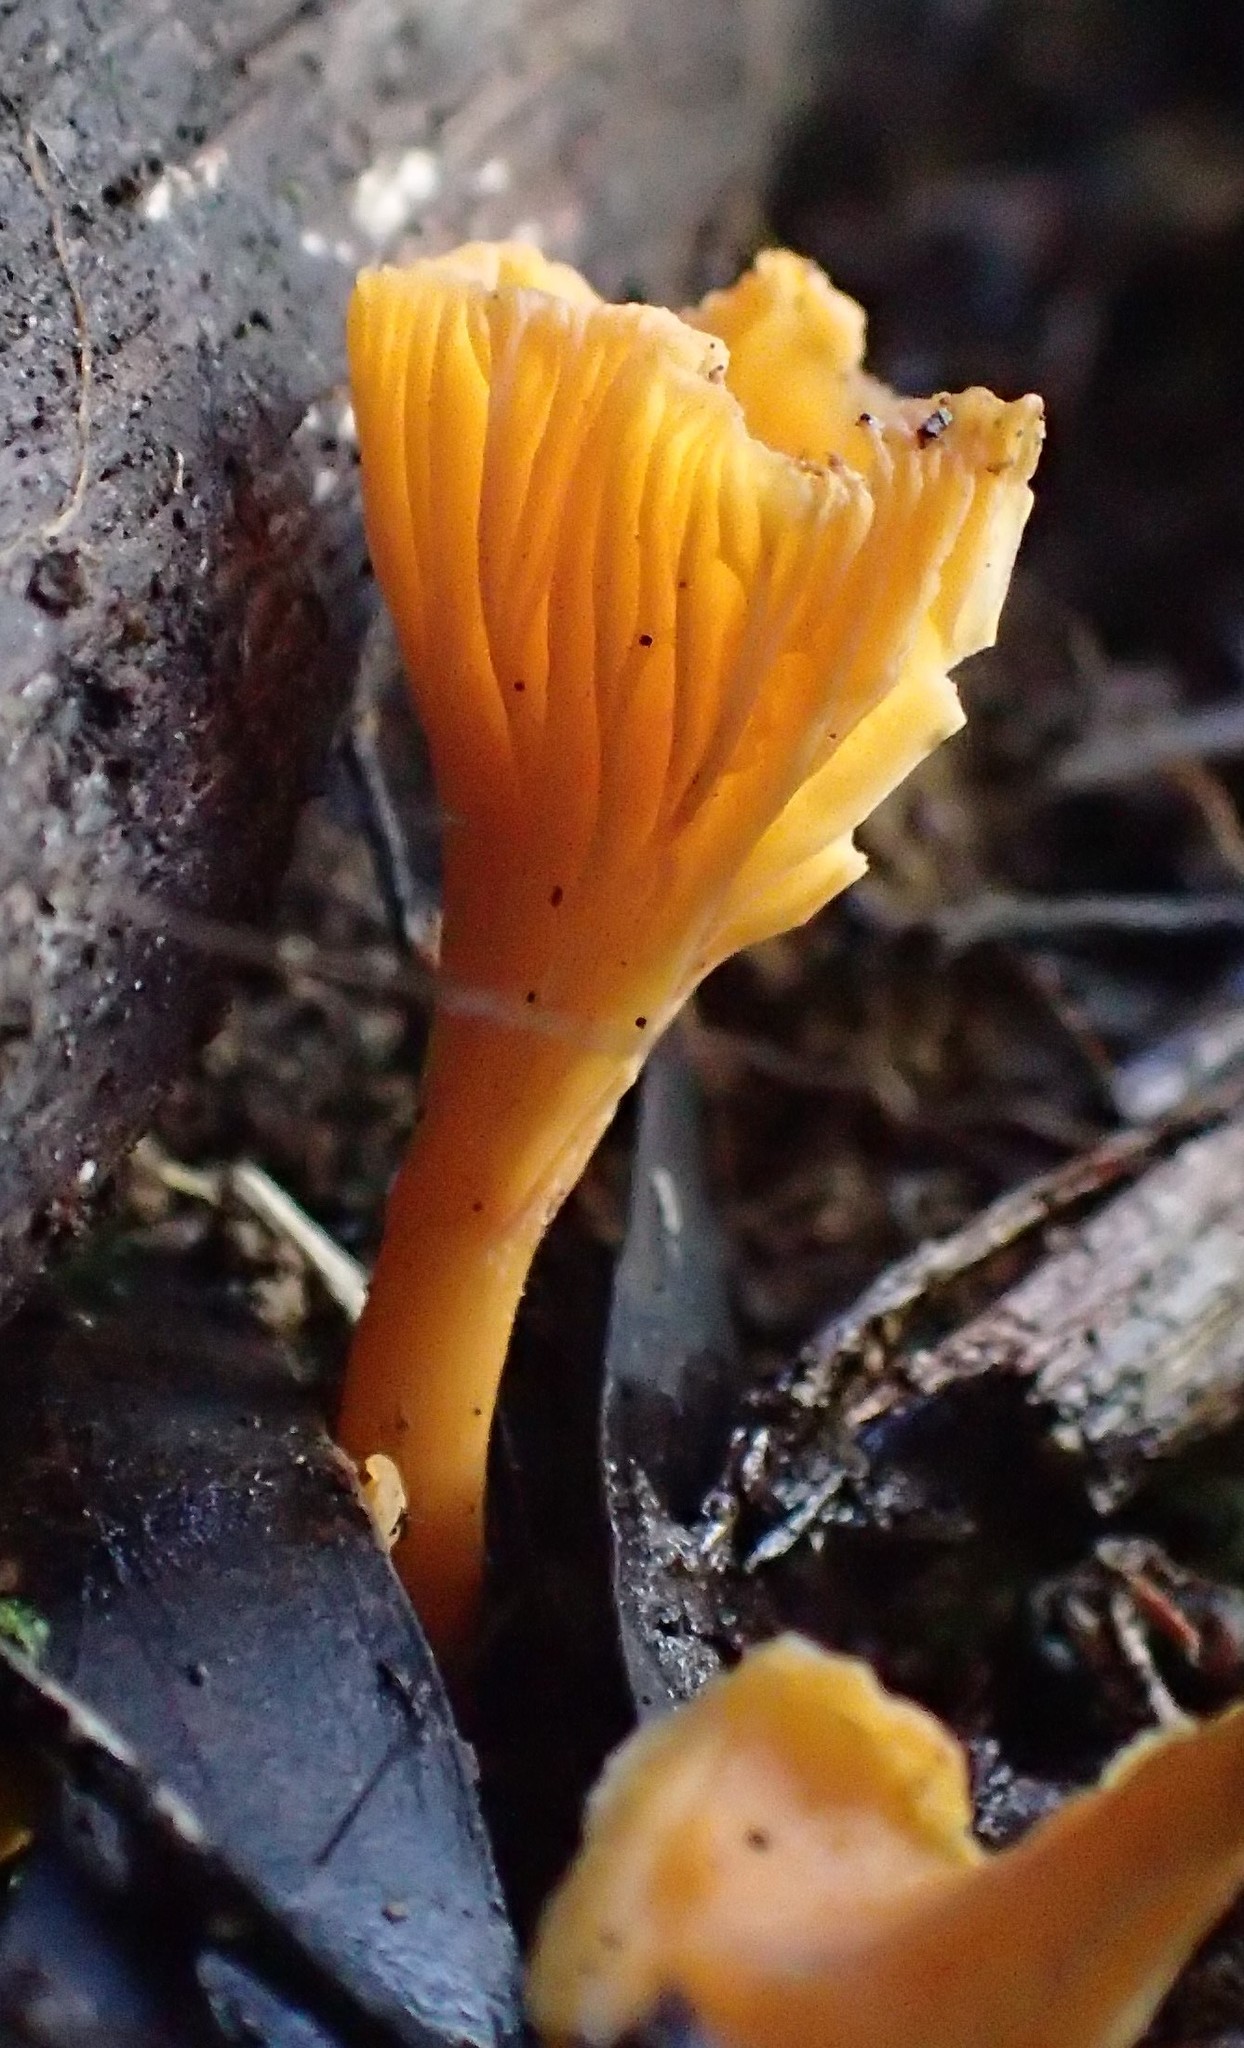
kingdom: Fungi
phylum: Basidiomycota
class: Agaricomycetes
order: Cantharellales
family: Hydnaceae
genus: Cantharellus
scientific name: Cantharellus
